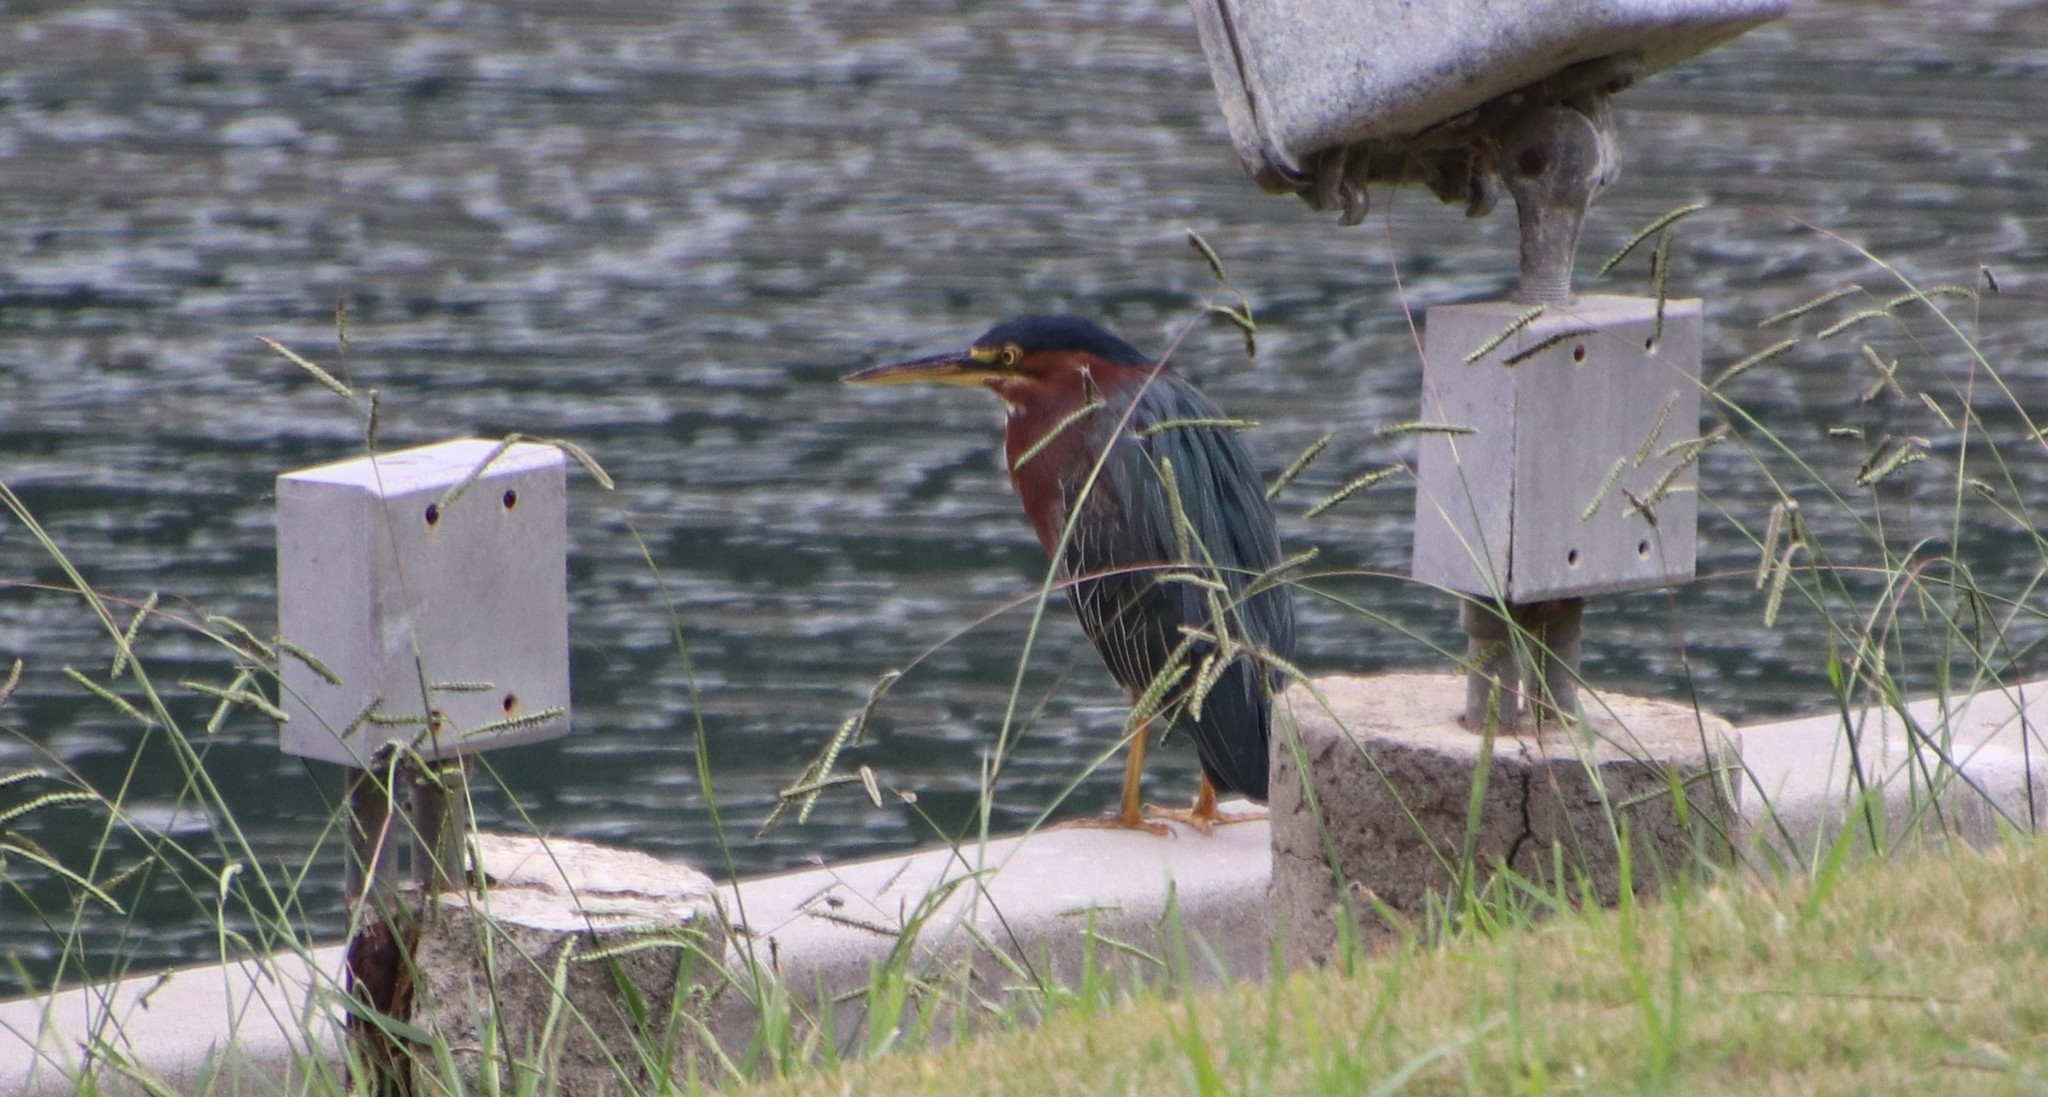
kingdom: Animalia
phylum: Chordata
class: Aves
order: Pelecaniformes
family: Ardeidae
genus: Butorides
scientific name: Butorides virescens
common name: Green heron
